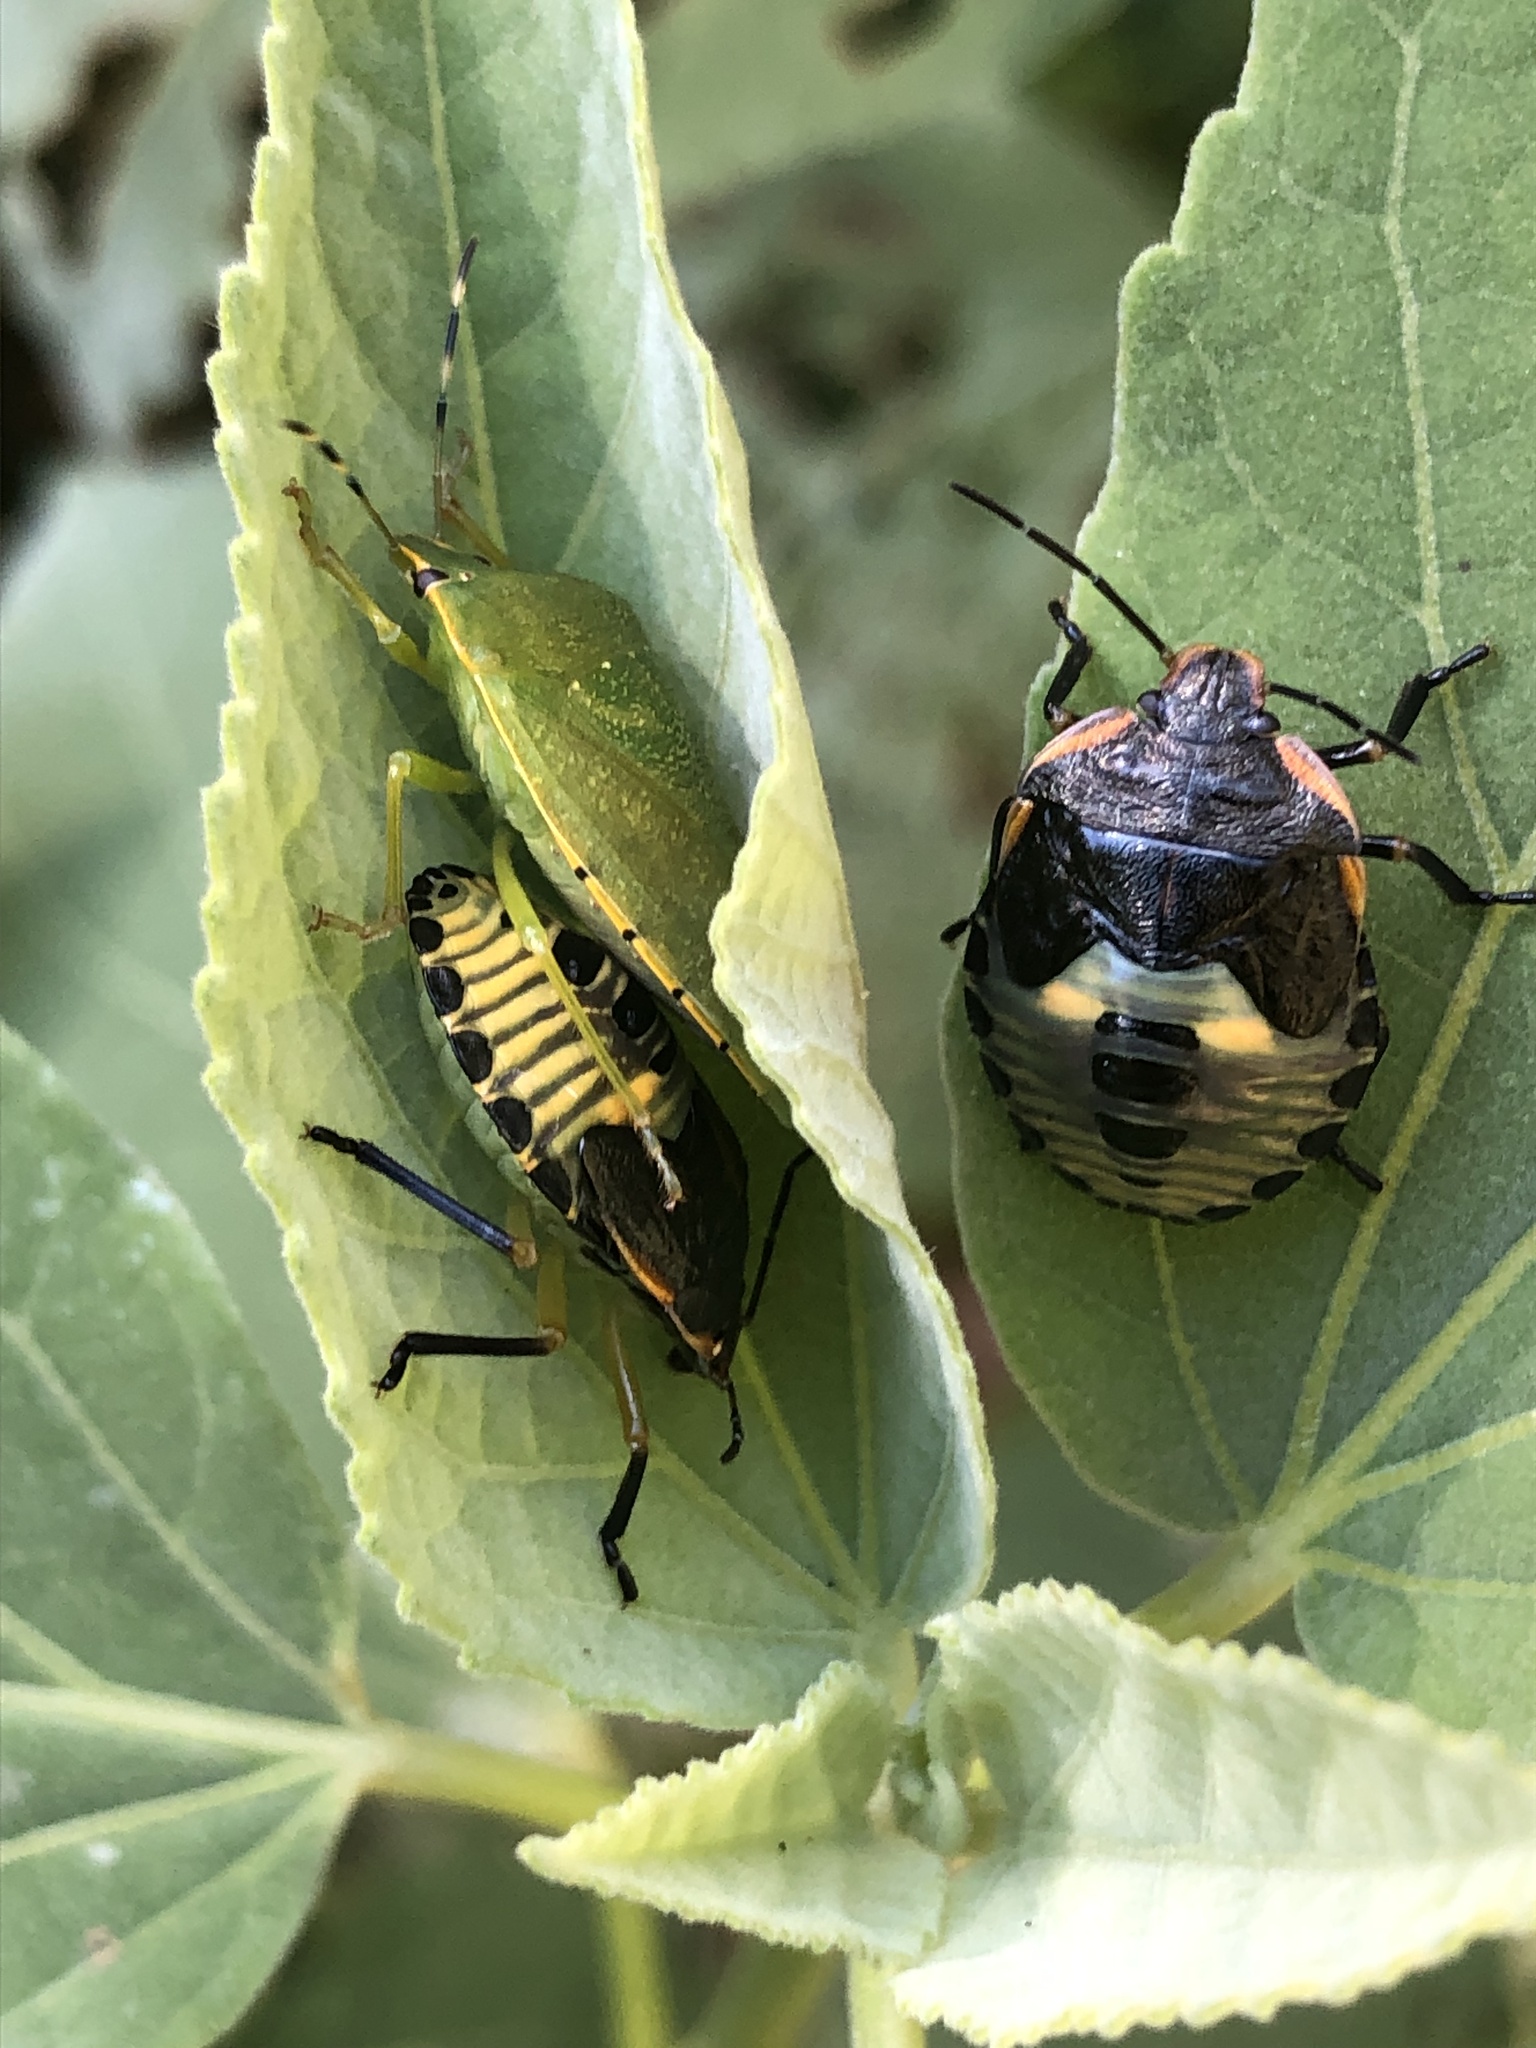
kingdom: Animalia
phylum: Arthropoda
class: Insecta
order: Hemiptera
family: Pentatomidae
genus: Chinavia
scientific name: Chinavia hilaris
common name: Green stink bug
